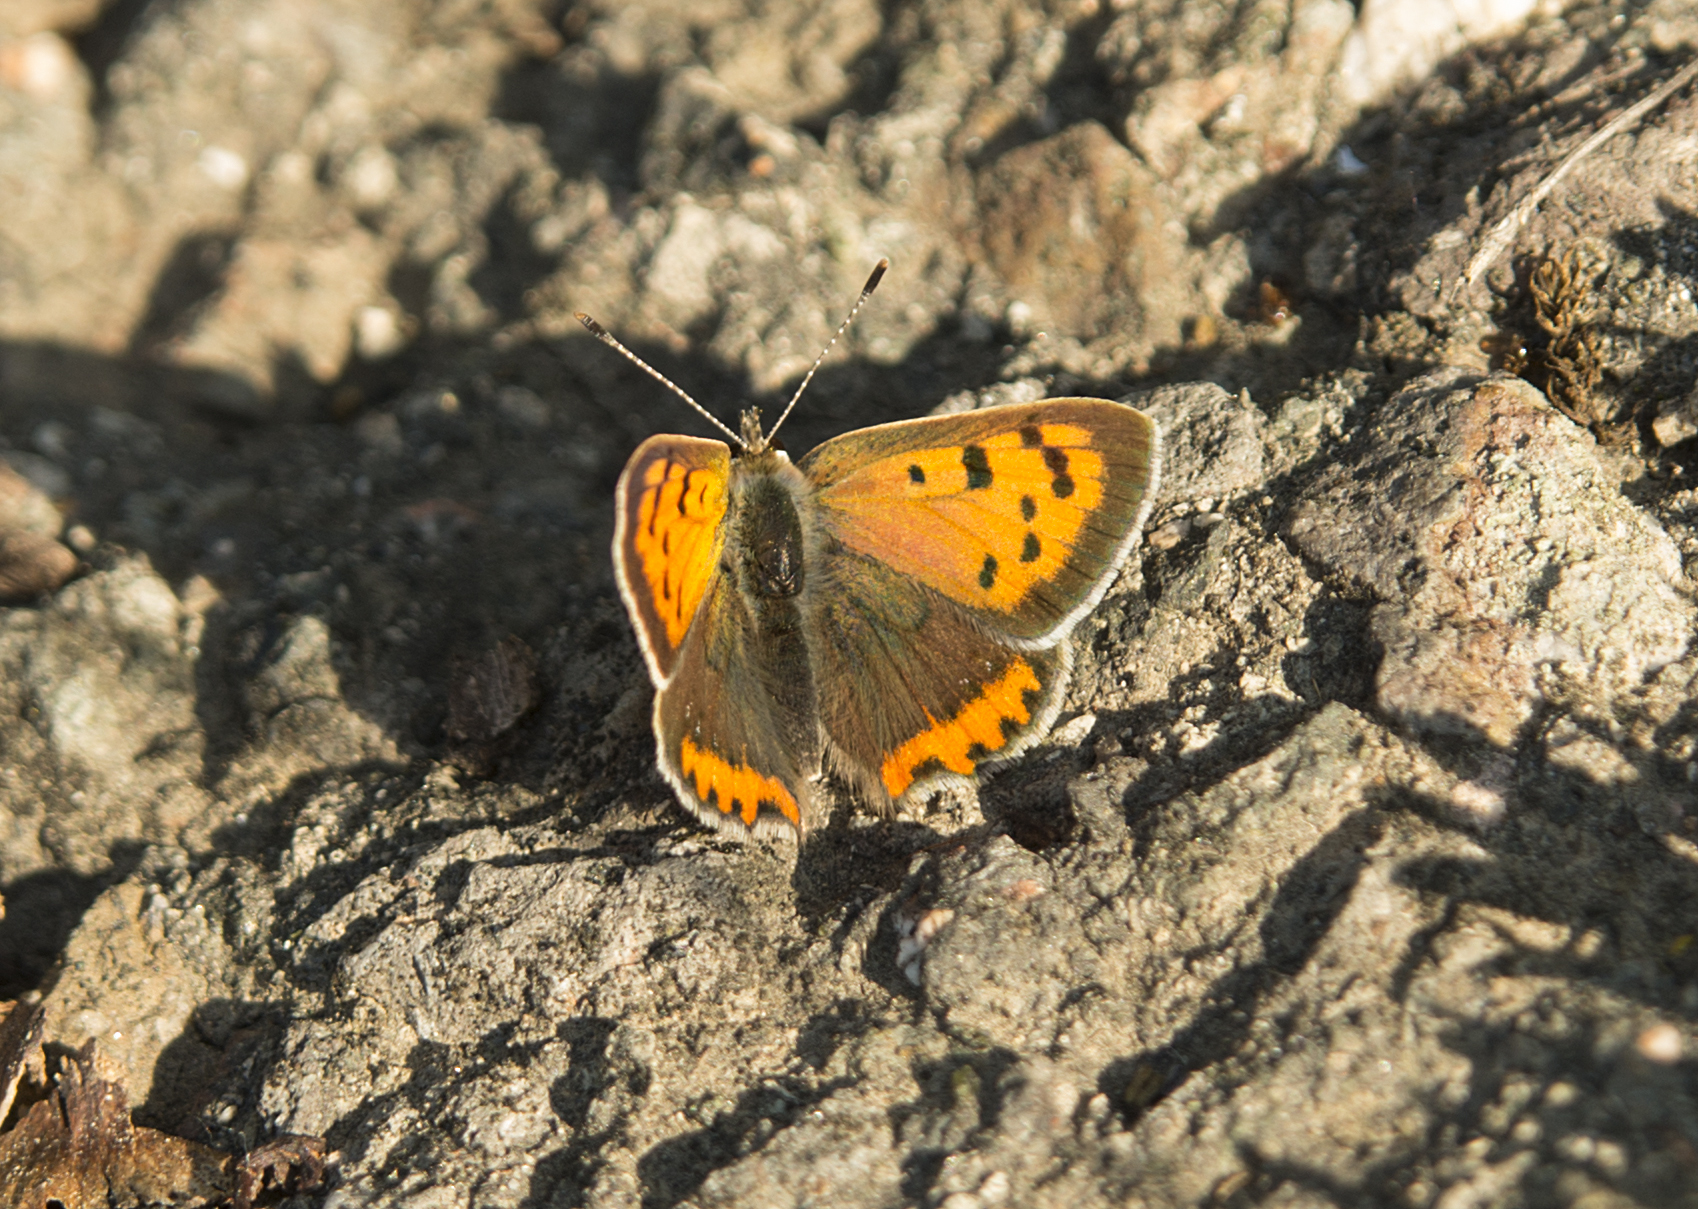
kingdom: Animalia
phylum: Arthropoda
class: Insecta
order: Lepidoptera
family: Lycaenidae
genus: Lycaena
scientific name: Lycaena phlaeas
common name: Small copper
